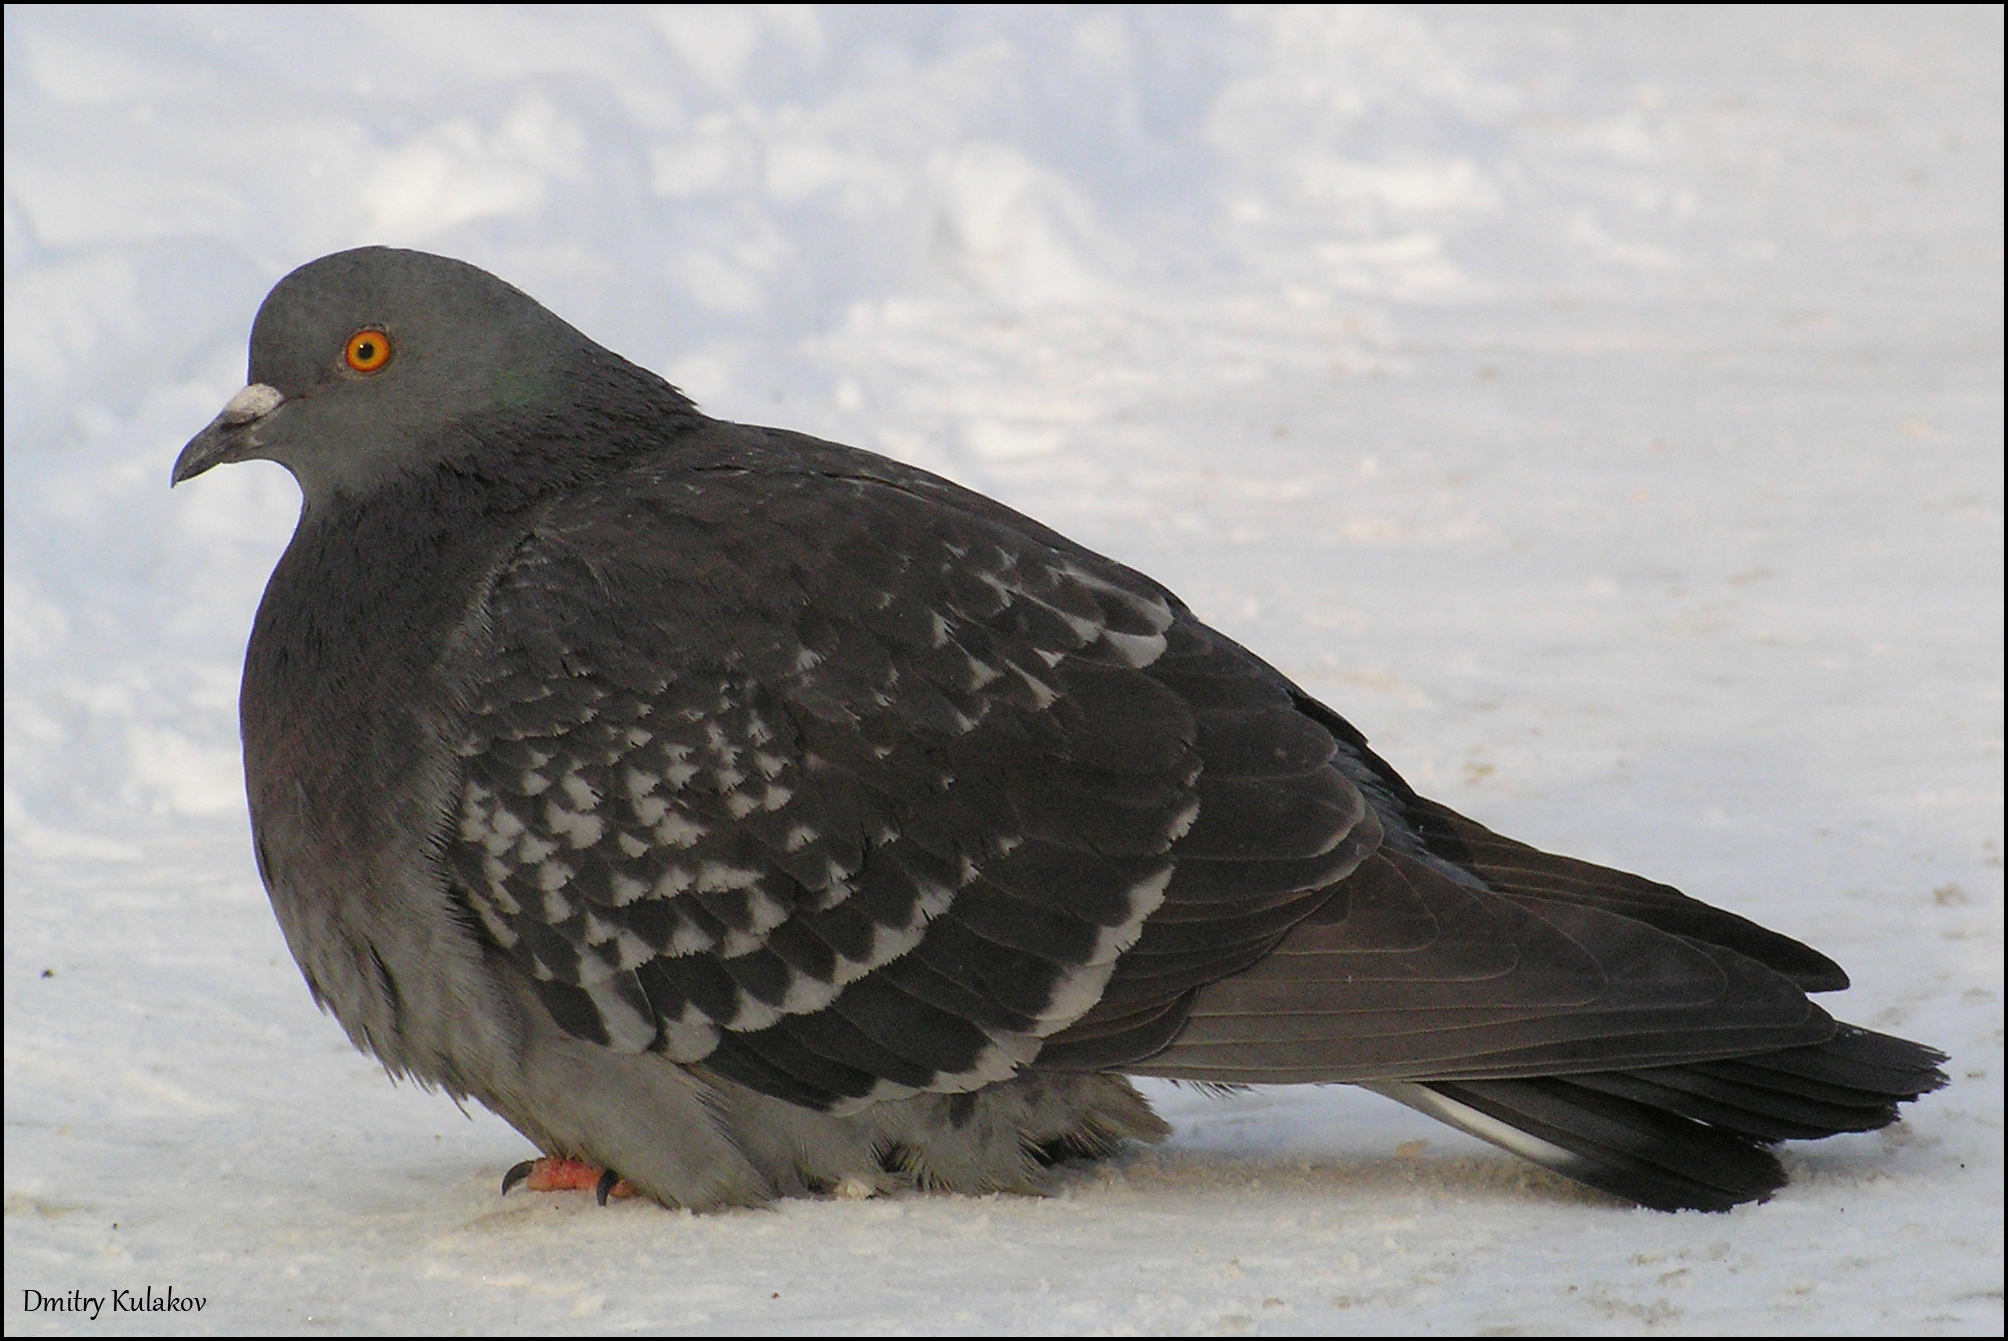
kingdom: Animalia
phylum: Chordata
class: Aves
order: Columbiformes
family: Columbidae
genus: Columba
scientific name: Columba livia
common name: Rock pigeon
